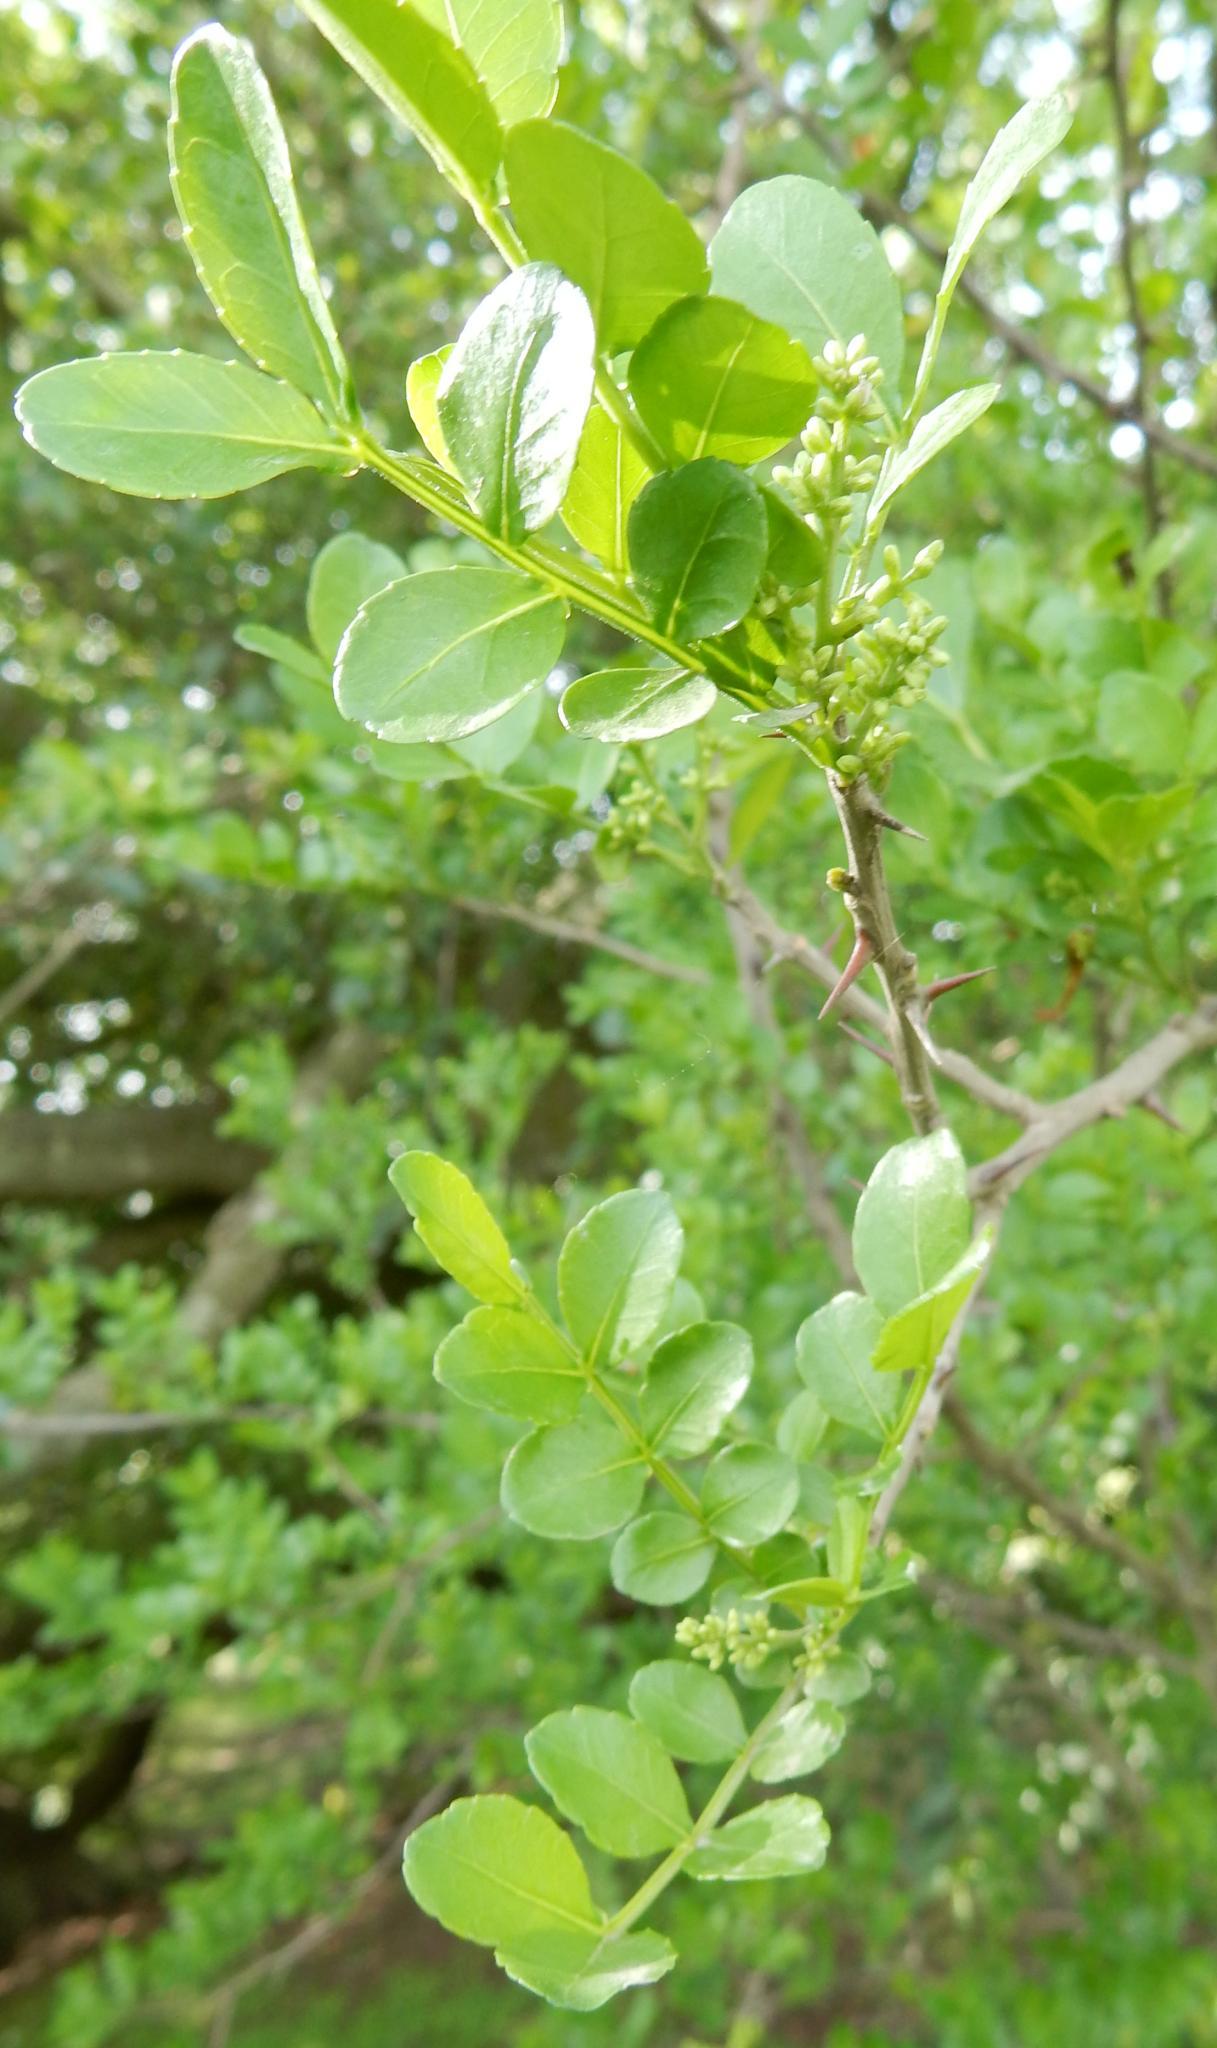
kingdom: Plantae
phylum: Tracheophyta
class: Magnoliopsida
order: Sapindales
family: Rutaceae
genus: Zanthoxylum
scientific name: Zanthoxylum capense
